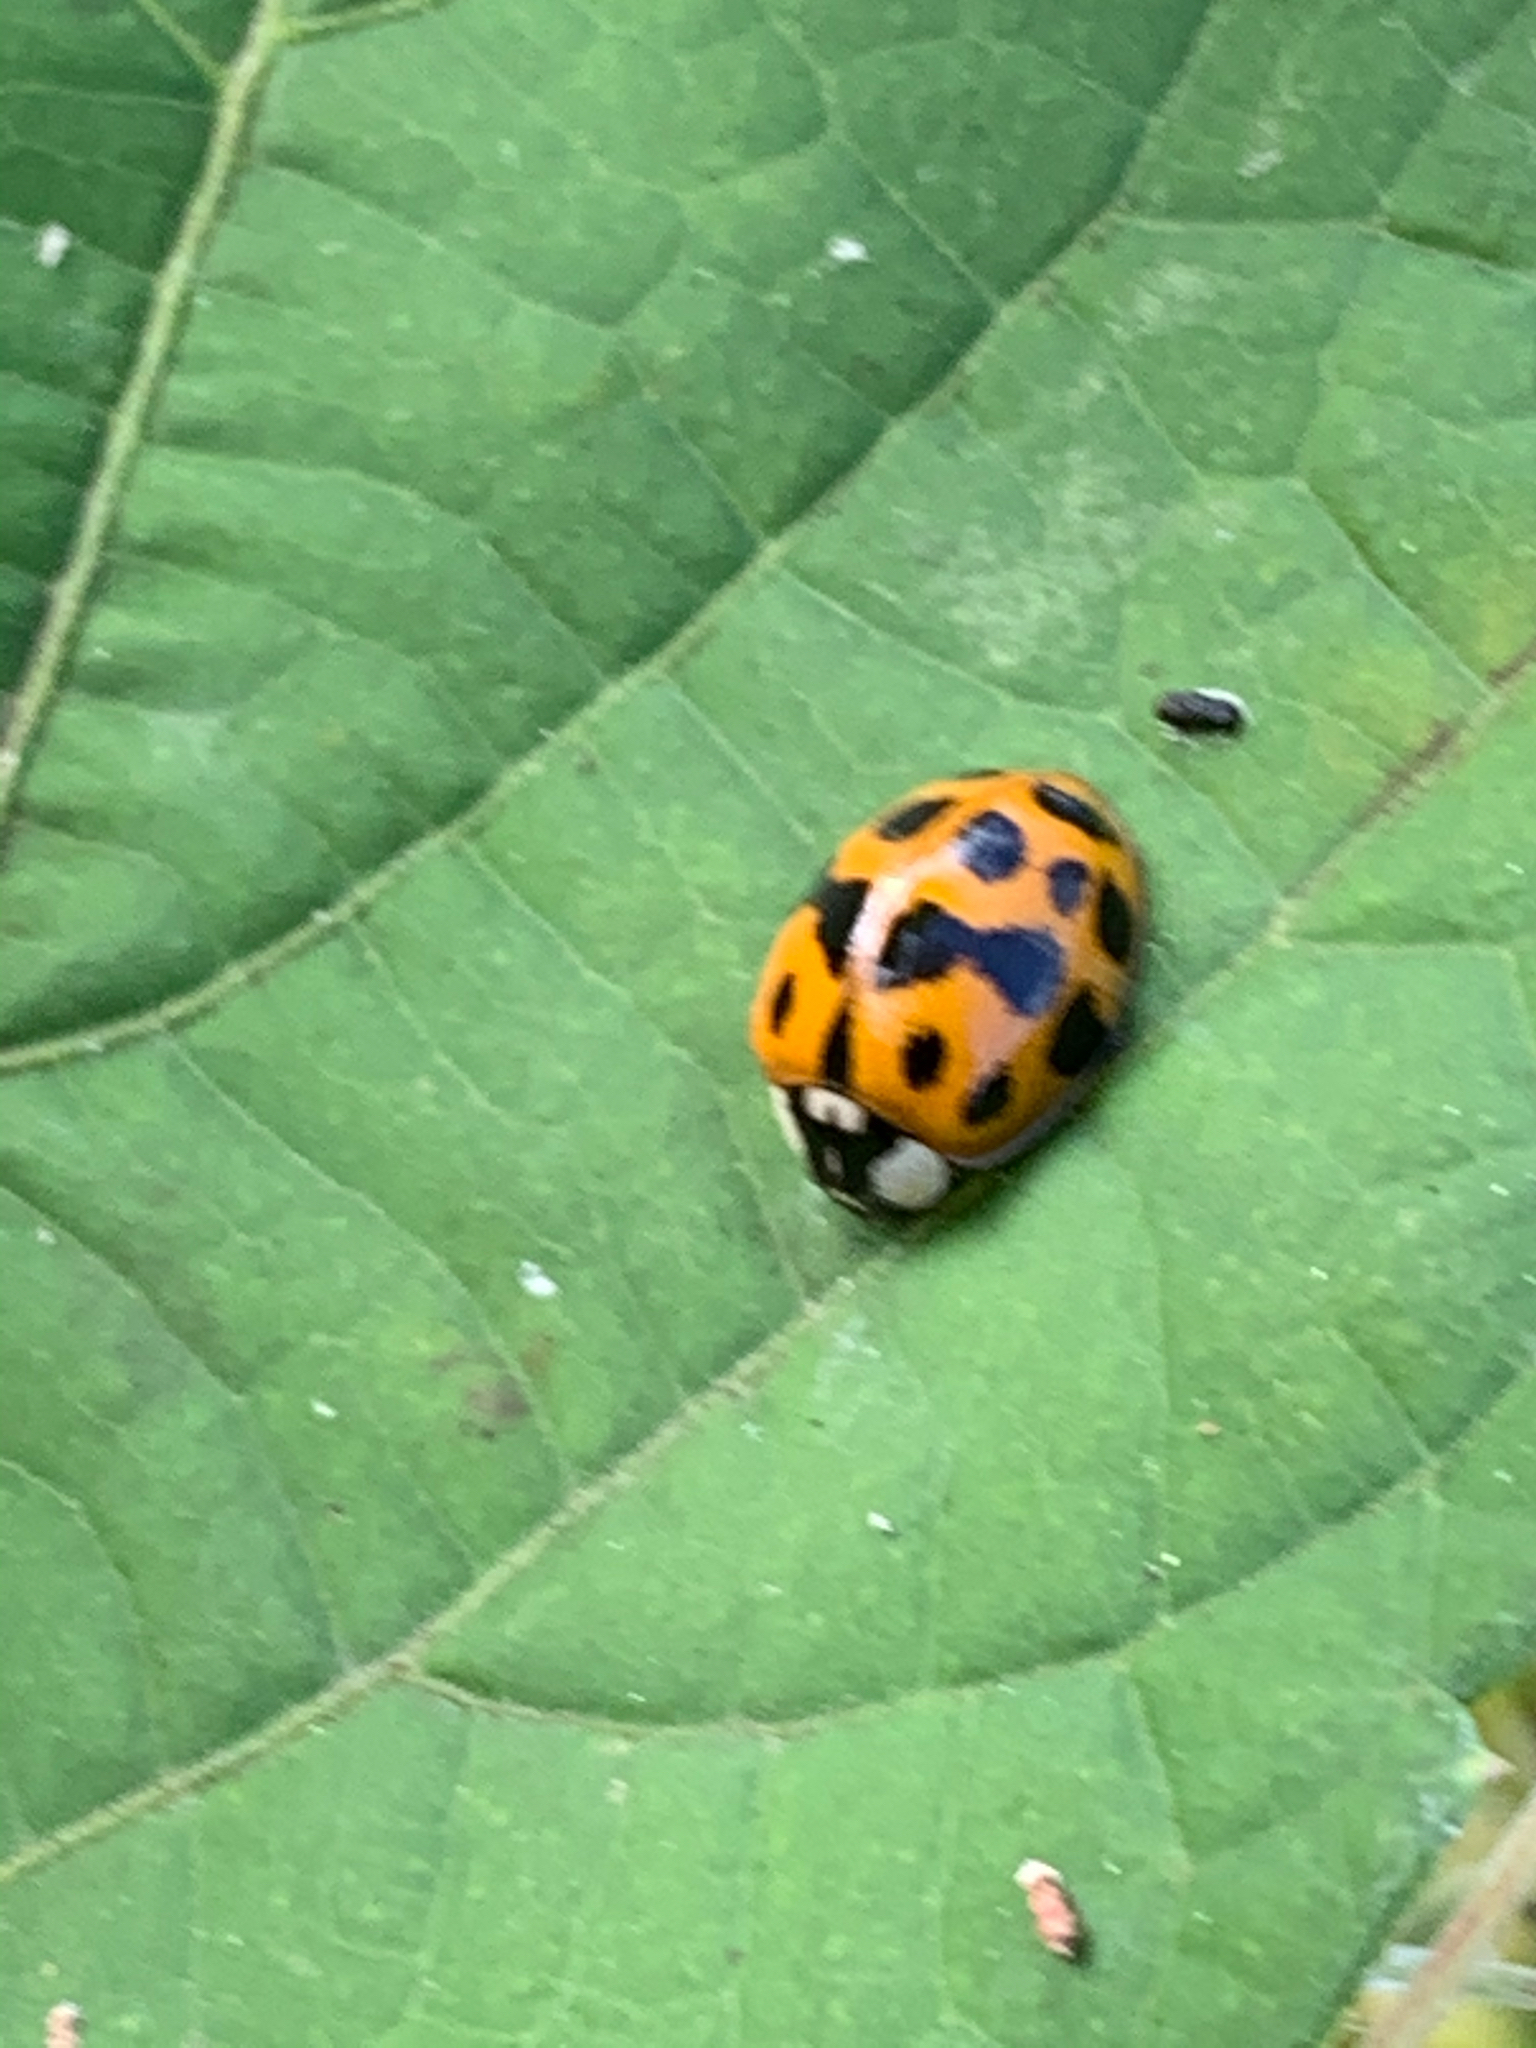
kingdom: Animalia
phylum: Arthropoda
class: Insecta
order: Coleoptera
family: Coccinellidae
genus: Harmonia
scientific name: Harmonia axyridis
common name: Harlequin ladybird
